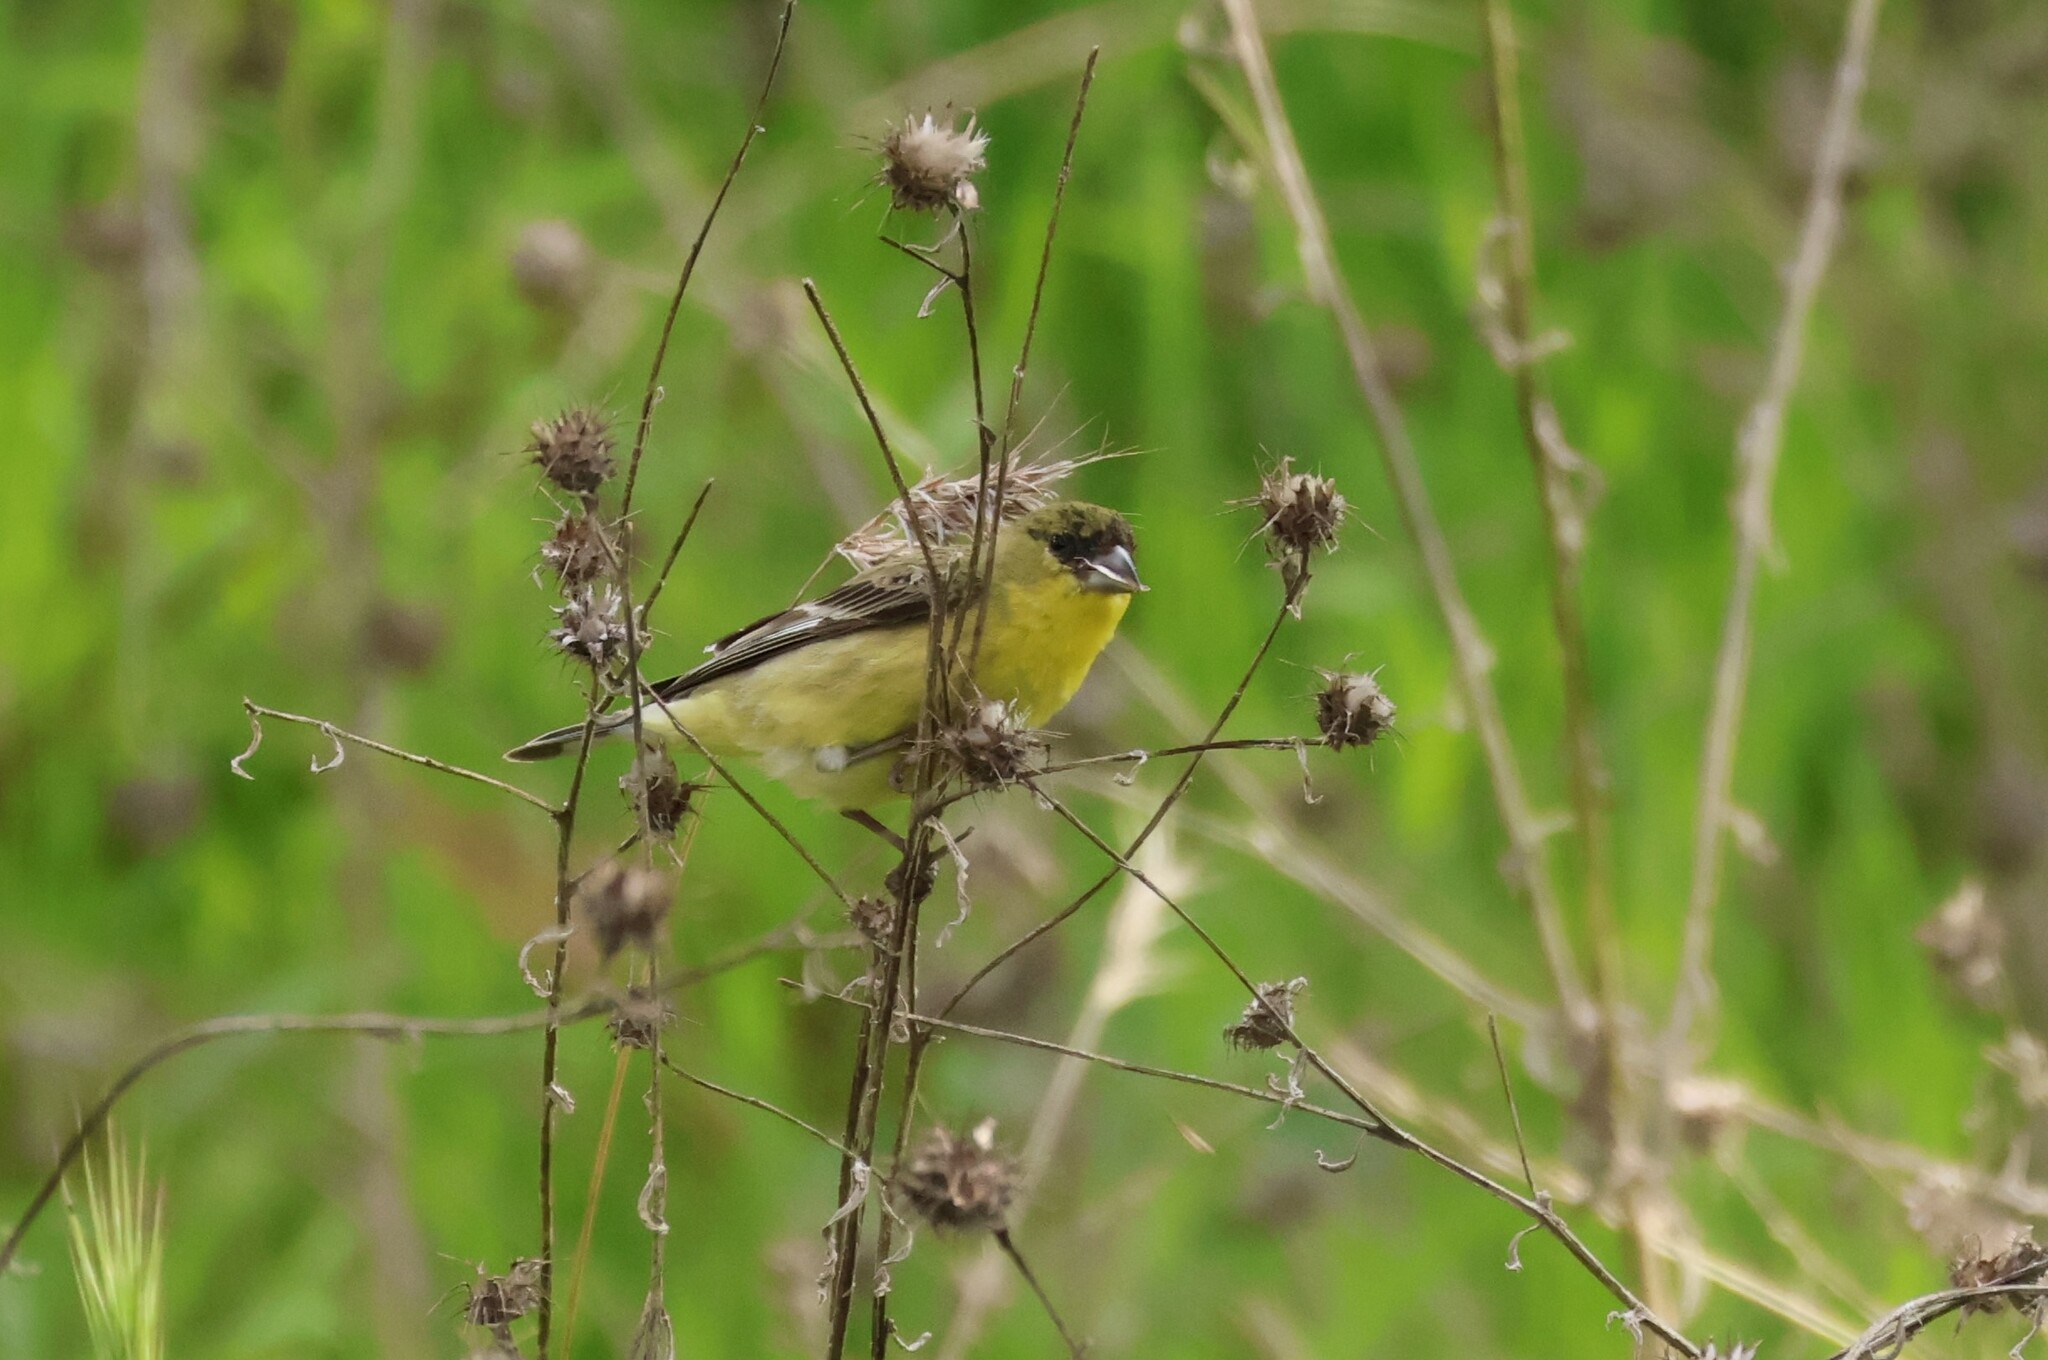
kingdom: Animalia
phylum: Chordata
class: Aves
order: Passeriformes
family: Fringillidae
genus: Spinus
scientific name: Spinus psaltria
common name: Lesser goldfinch
